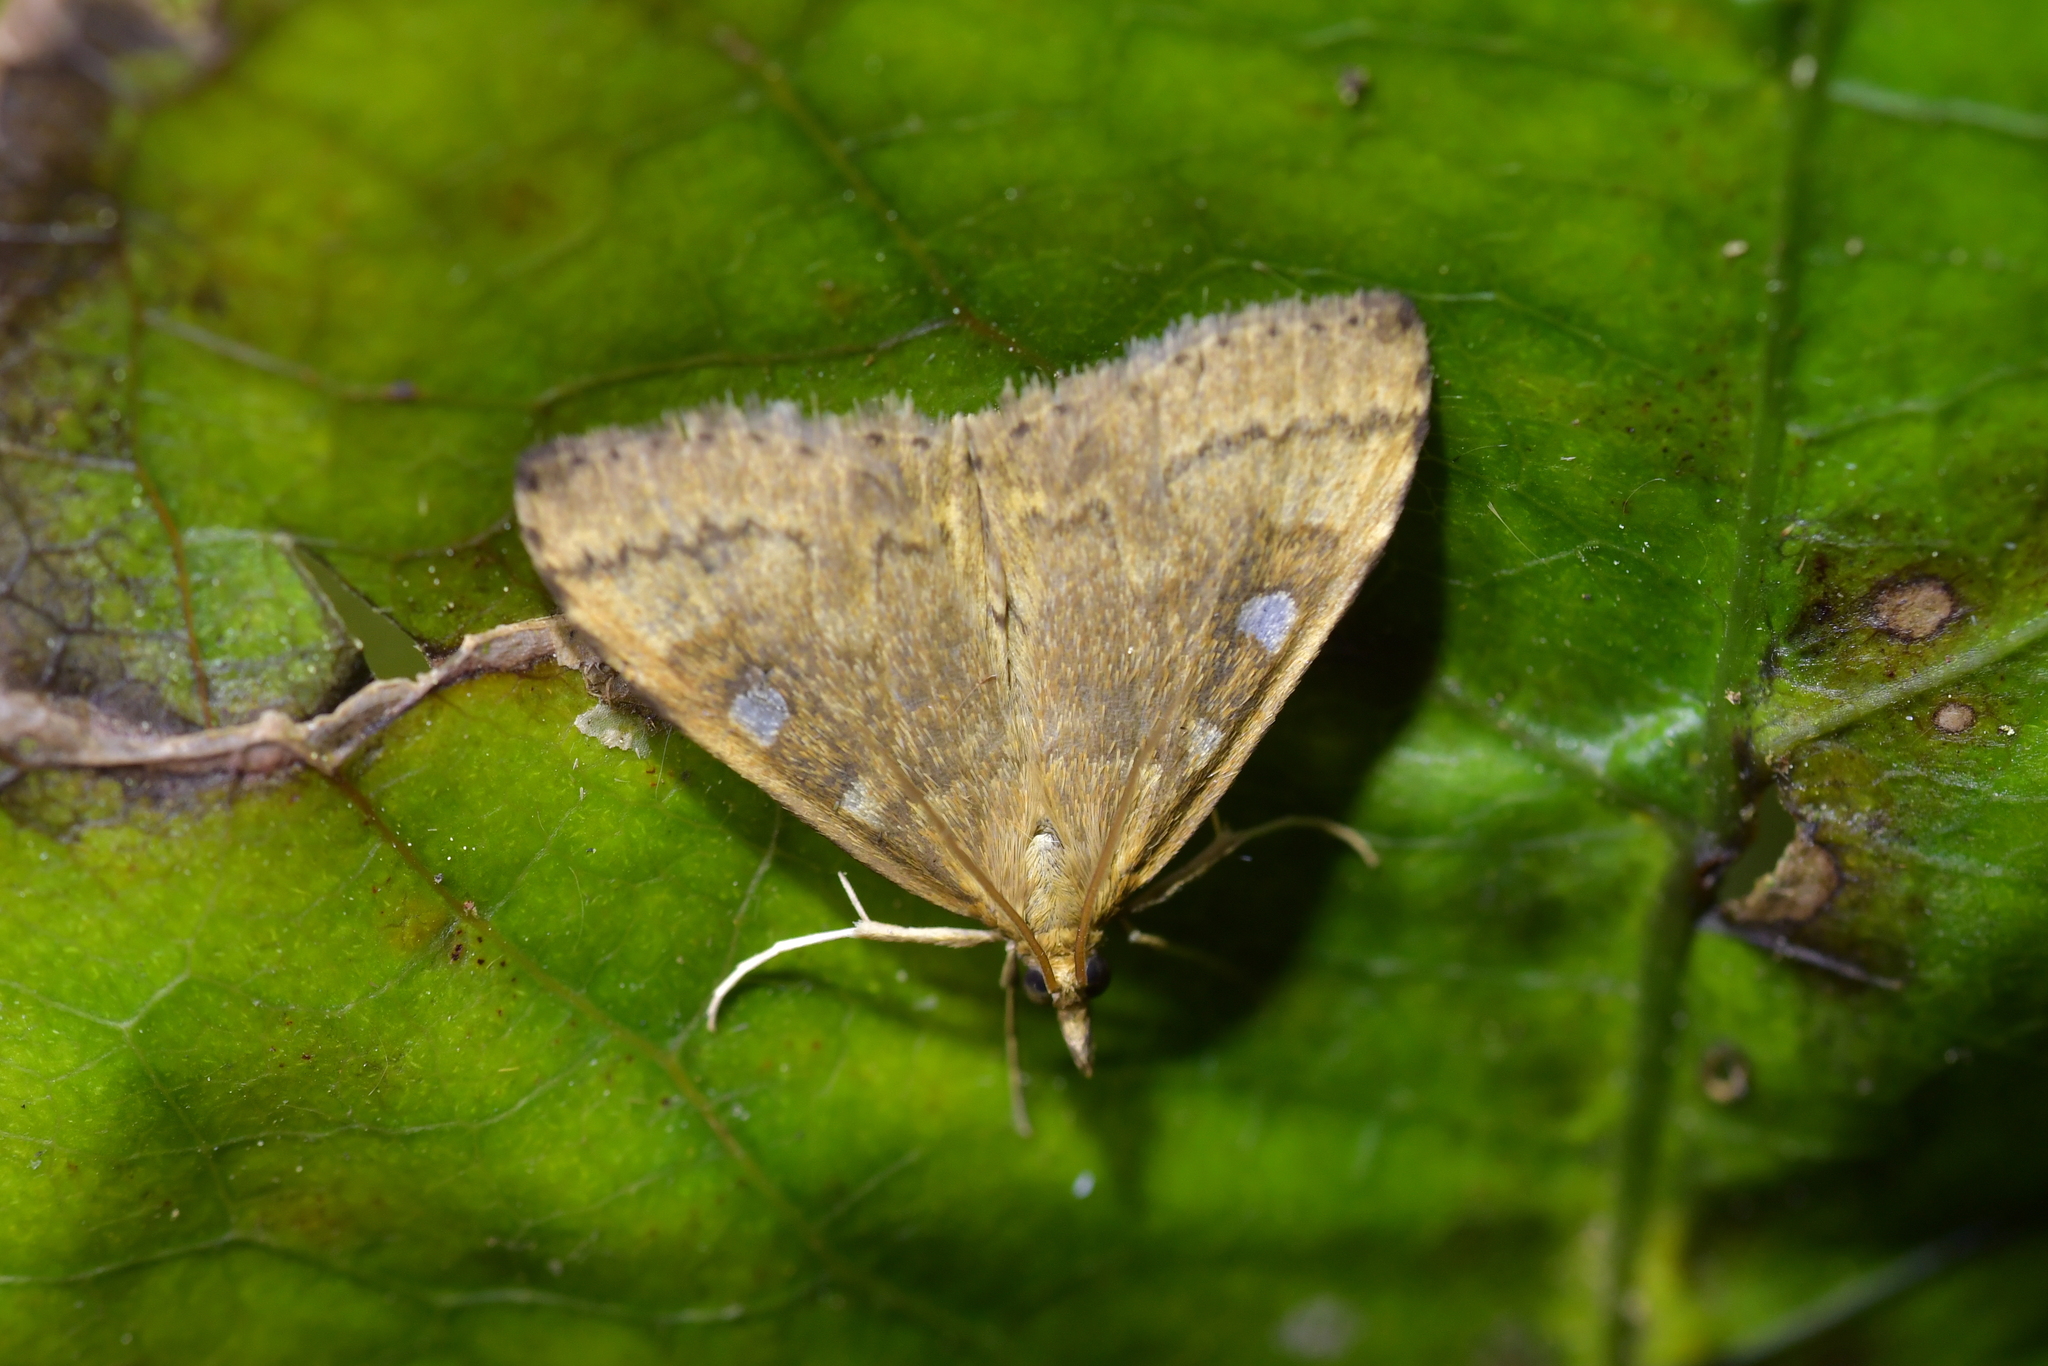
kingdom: Animalia
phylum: Arthropoda
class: Insecta
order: Lepidoptera
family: Crambidae
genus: Udea
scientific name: Udea marmarina
